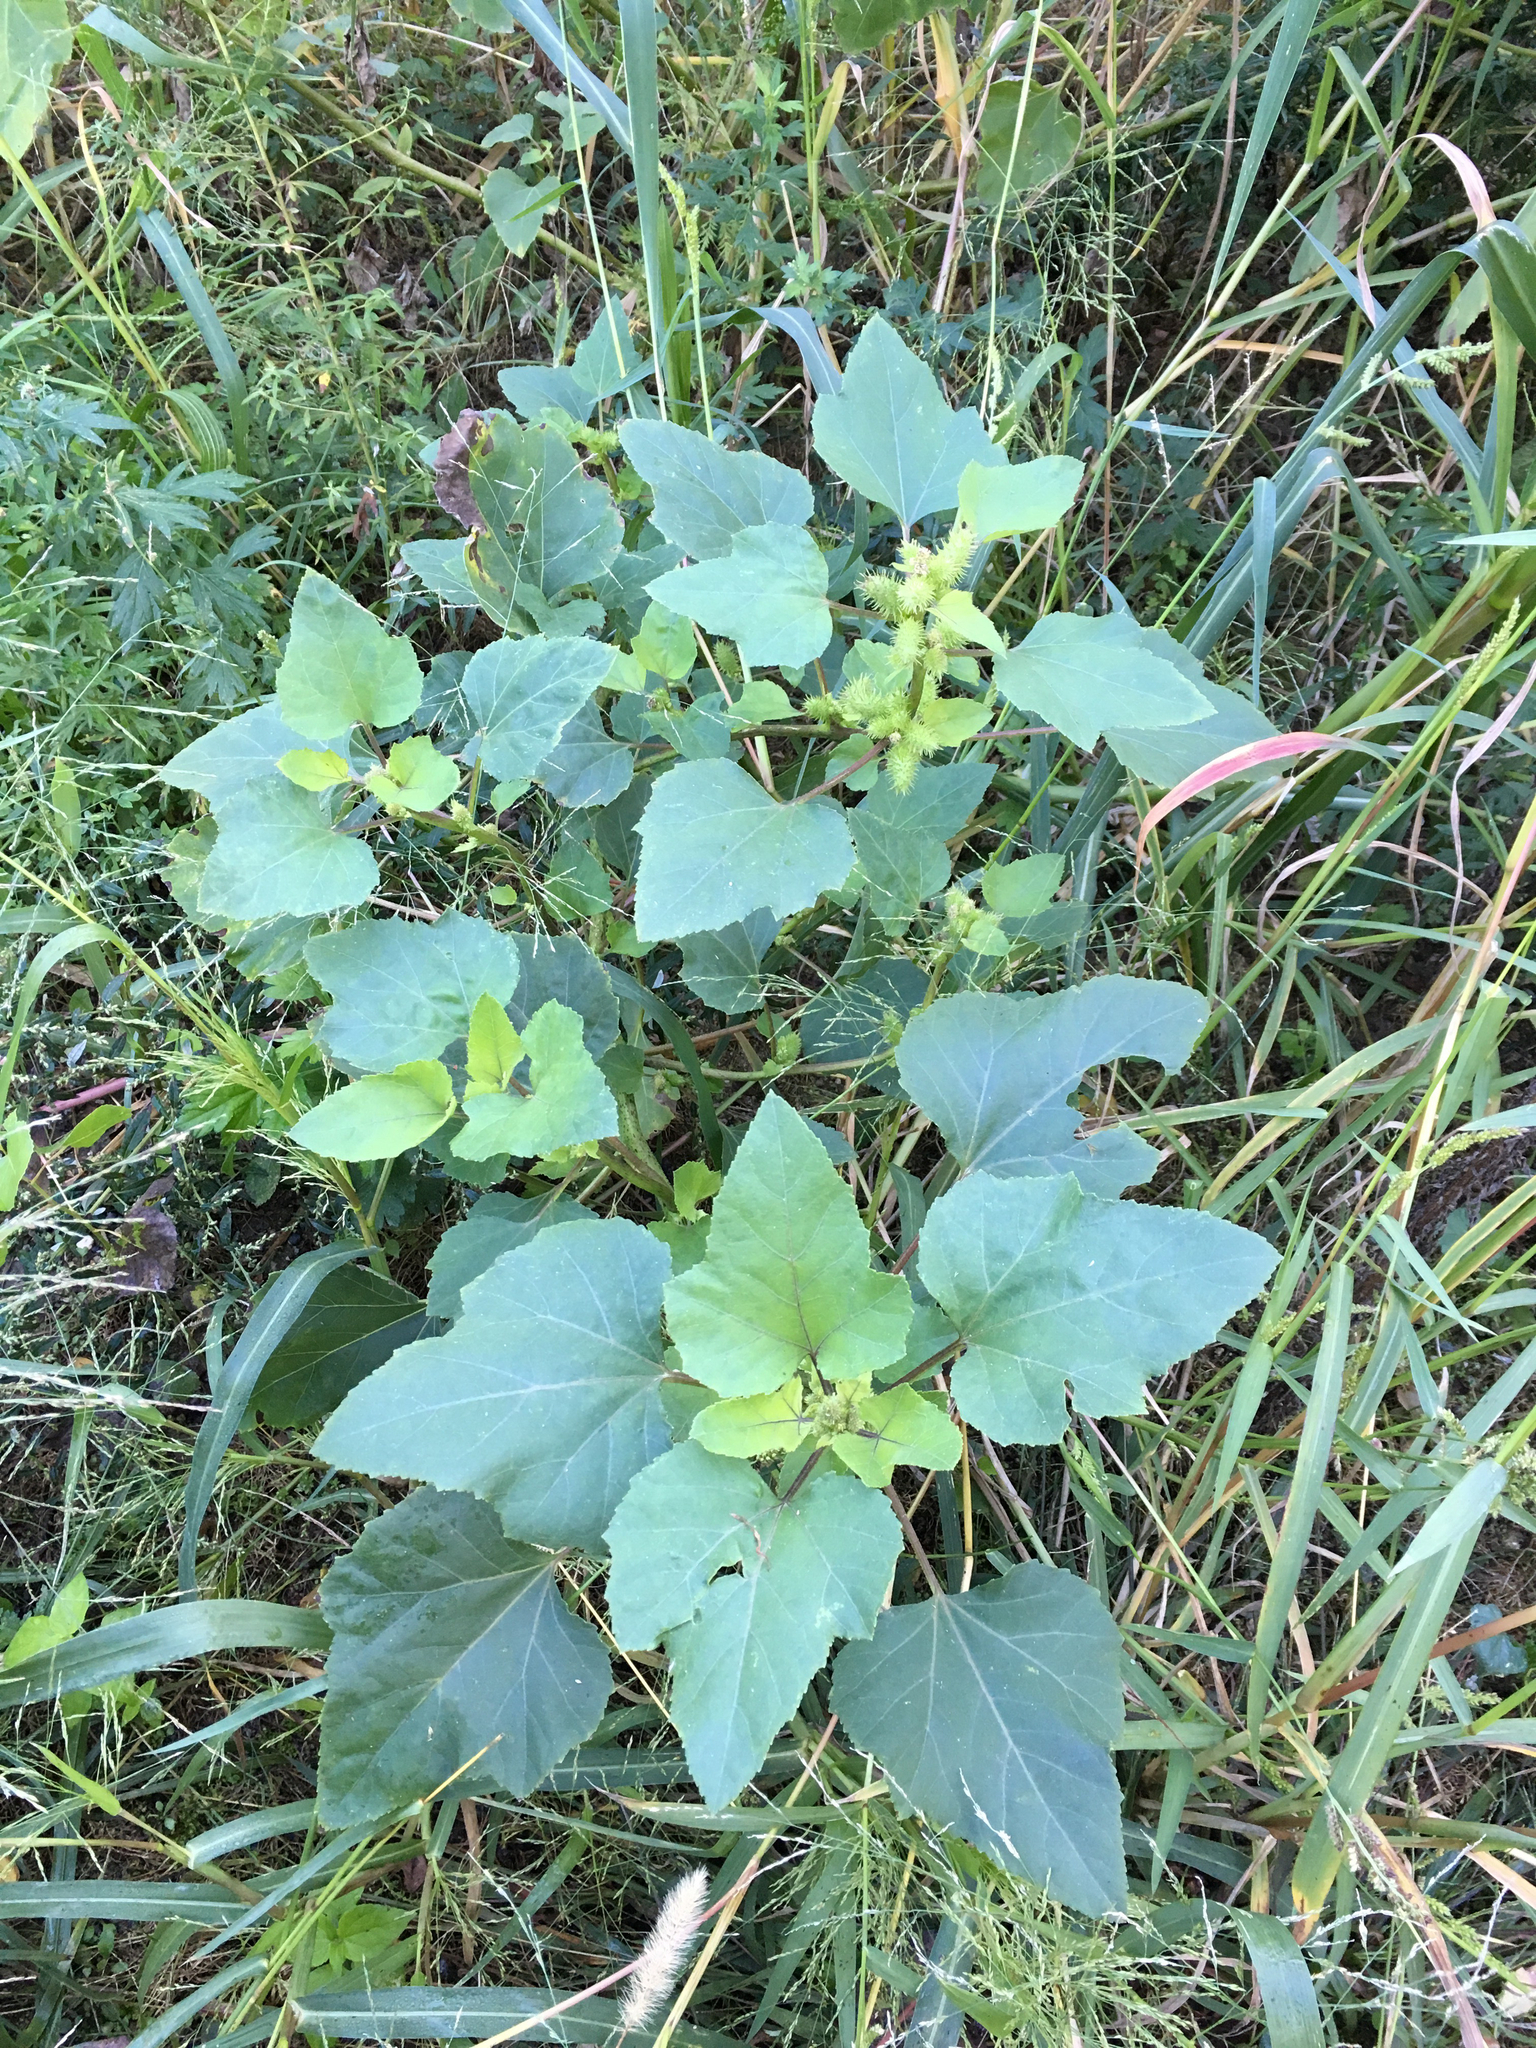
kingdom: Plantae
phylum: Tracheophyta
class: Magnoliopsida
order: Asterales
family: Asteraceae
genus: Xanthium
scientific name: Xanthium strumarium
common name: Rough cocklebur
